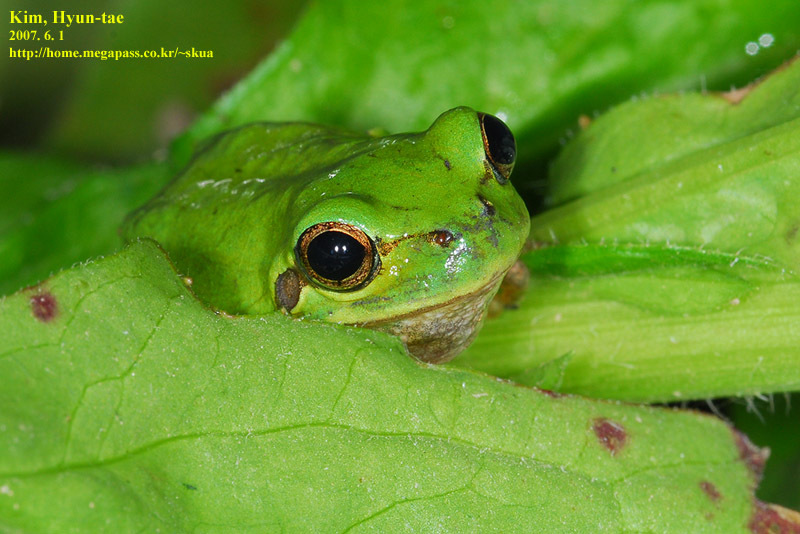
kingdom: Animalia
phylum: Chordata
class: Amphibia
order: Anura
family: Hylidae
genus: Dryophytes
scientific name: Dryophytes japonicus
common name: Japanese treefrog
